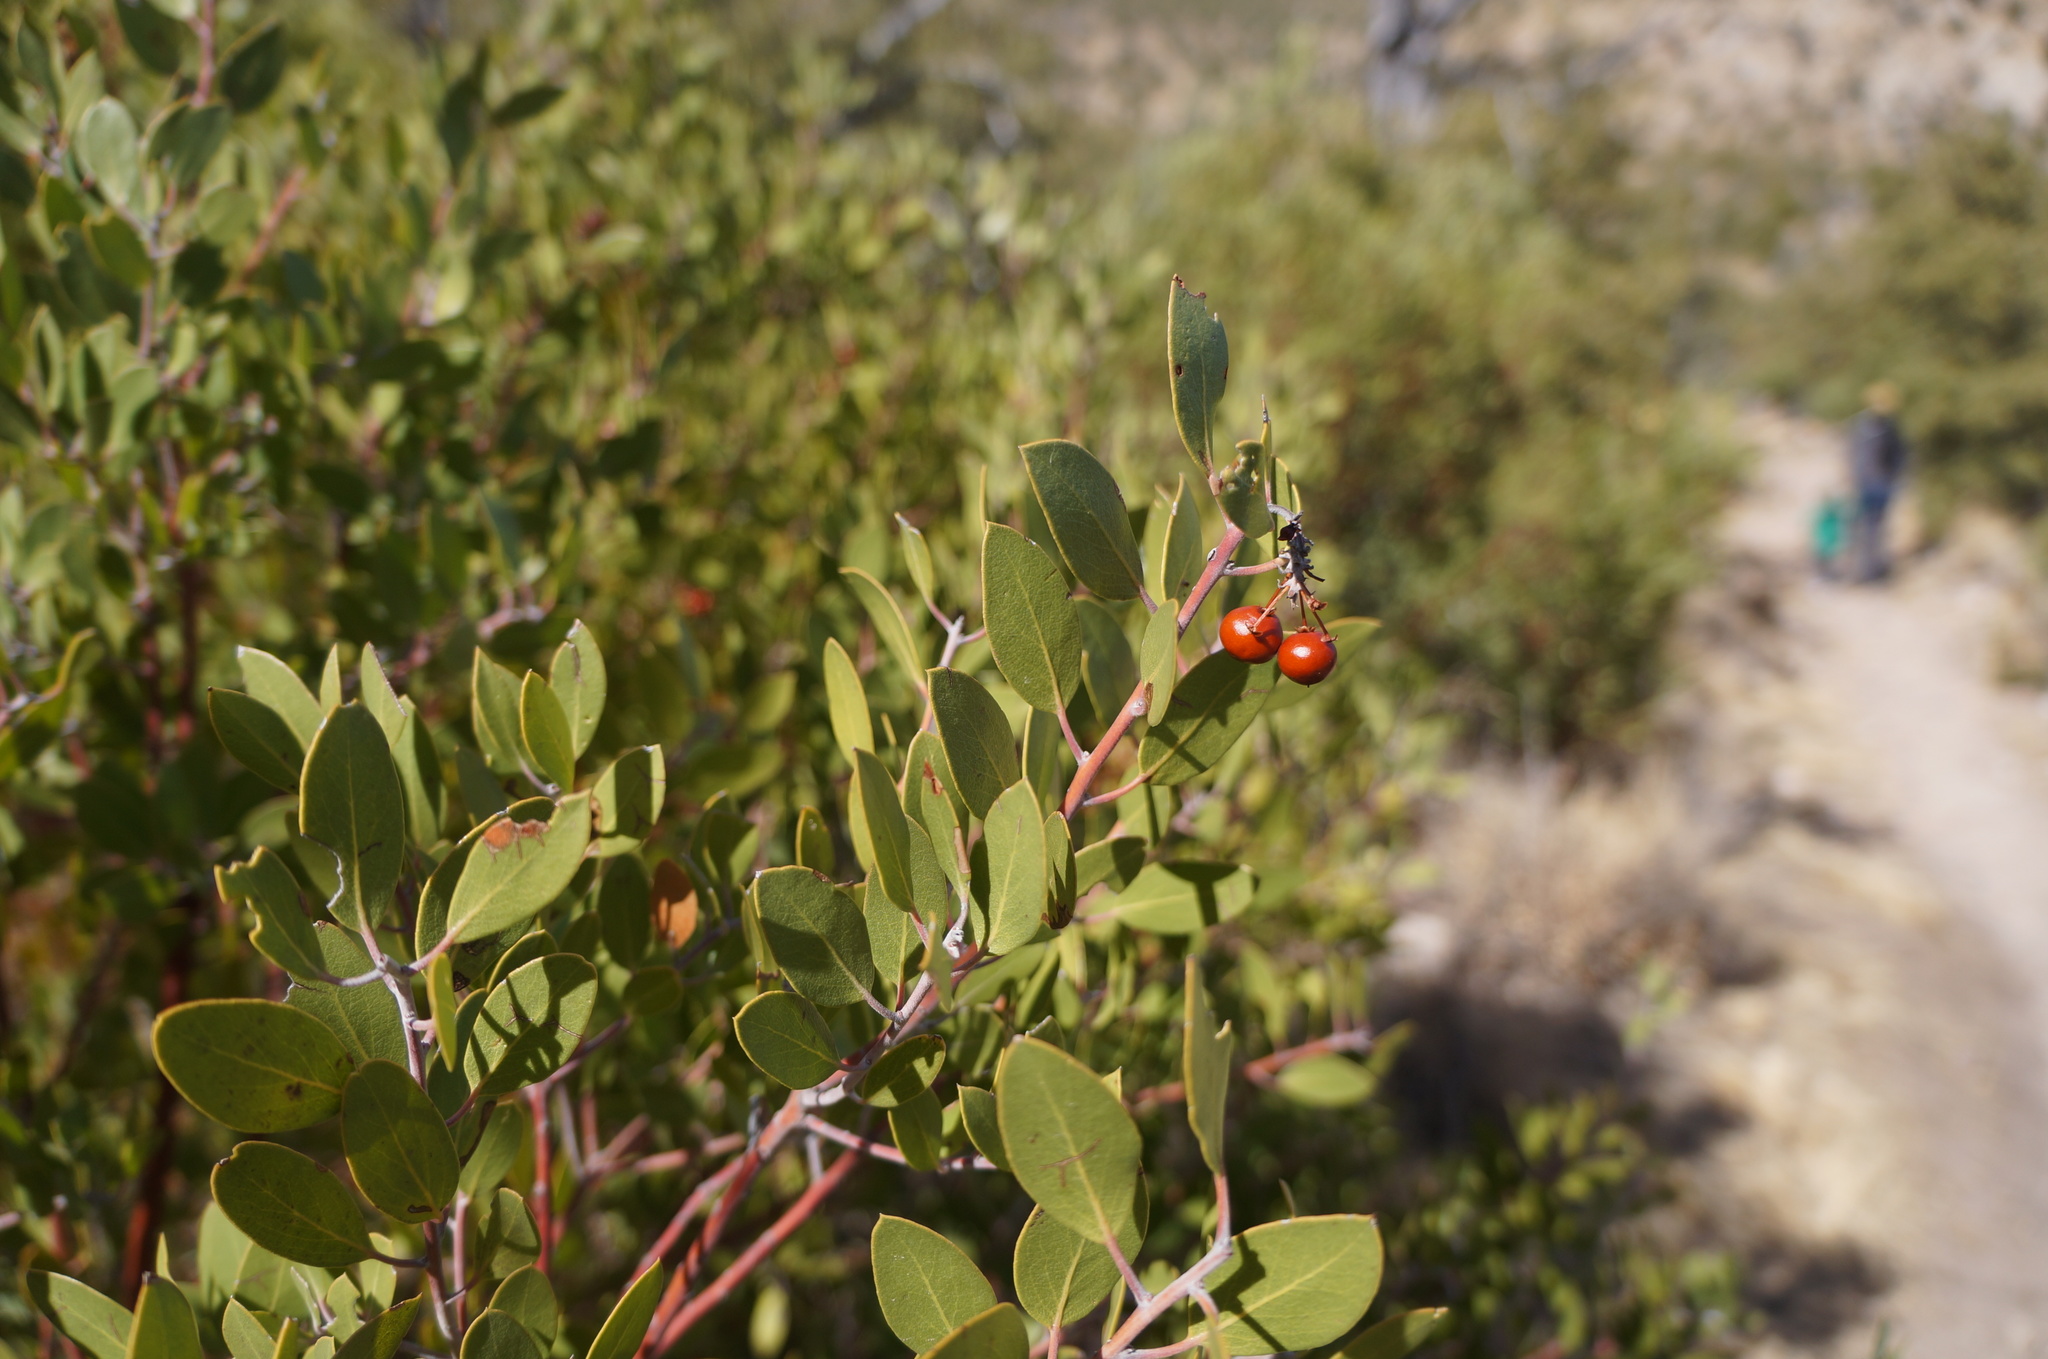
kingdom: Plantae
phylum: Tracheophyta
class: Magnoliopsida
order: Ericales
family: Ericaceae
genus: Arctostaphylos
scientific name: Arctostaphylos pungens
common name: Mexican manzanita
